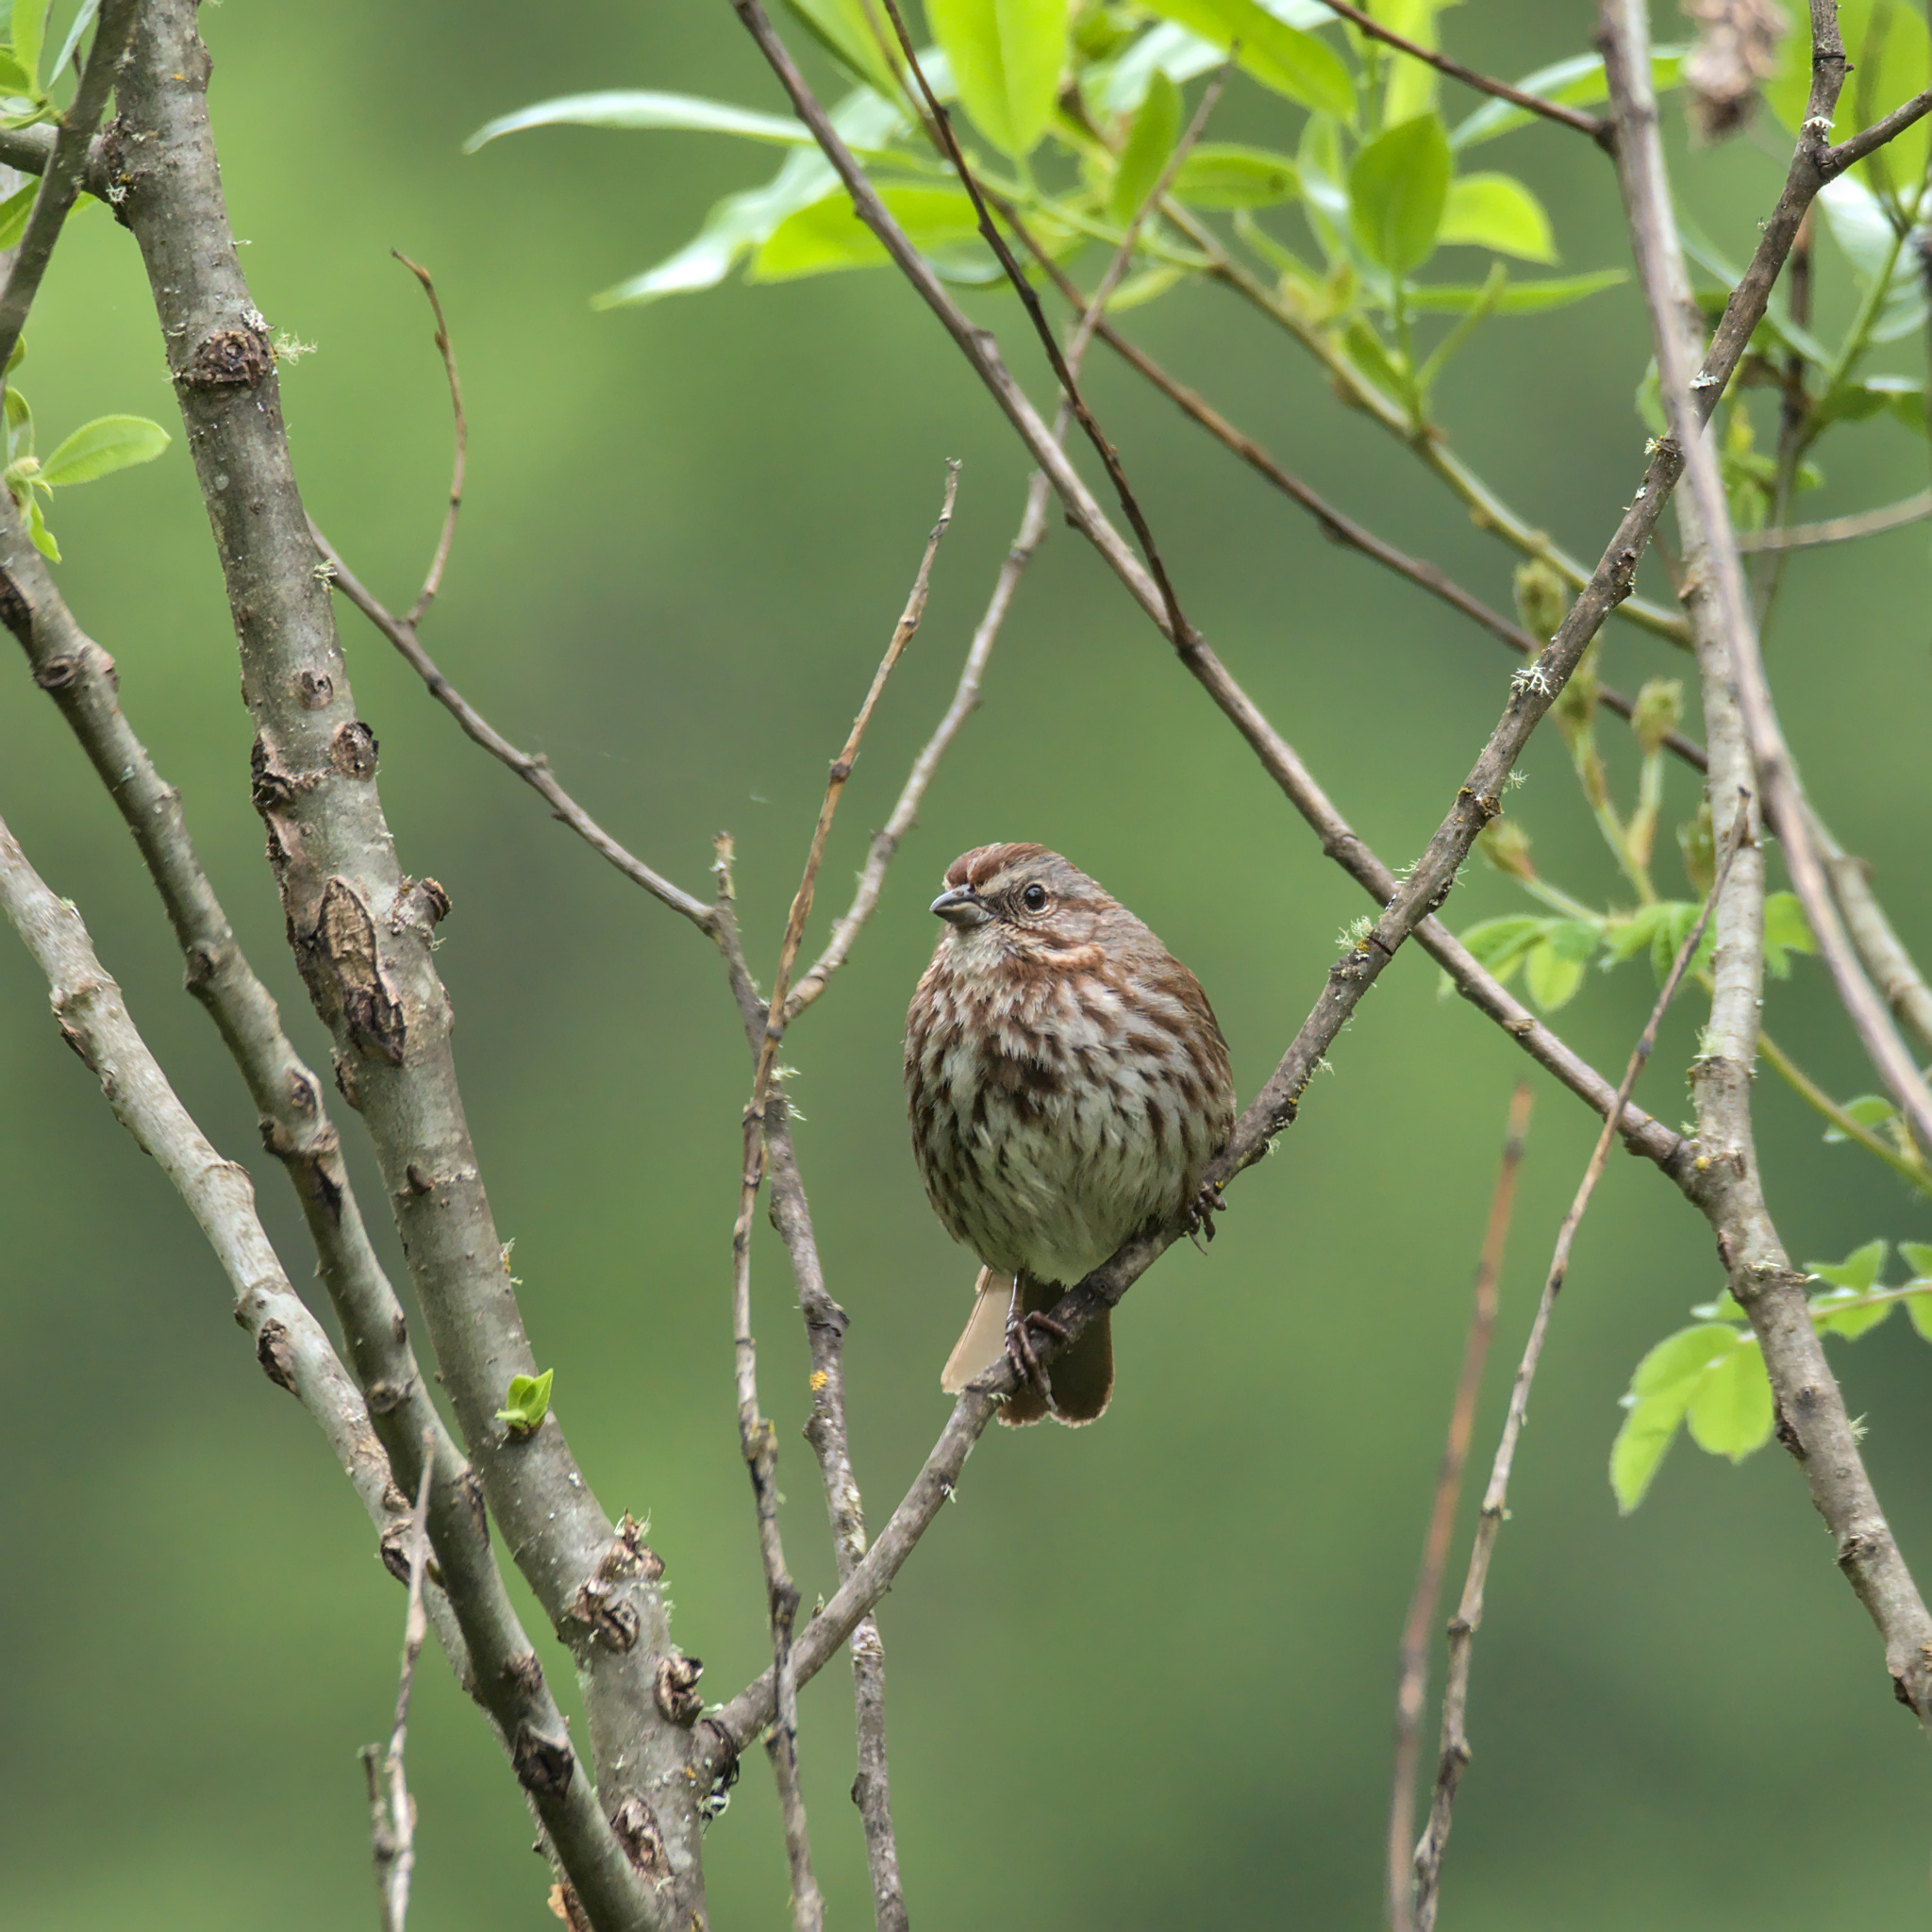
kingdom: Animalia
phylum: Chordata
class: Aves
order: Passeriformes
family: Passerellidae
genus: Melospiza
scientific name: Melospiza melodia
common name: Song sparrow
